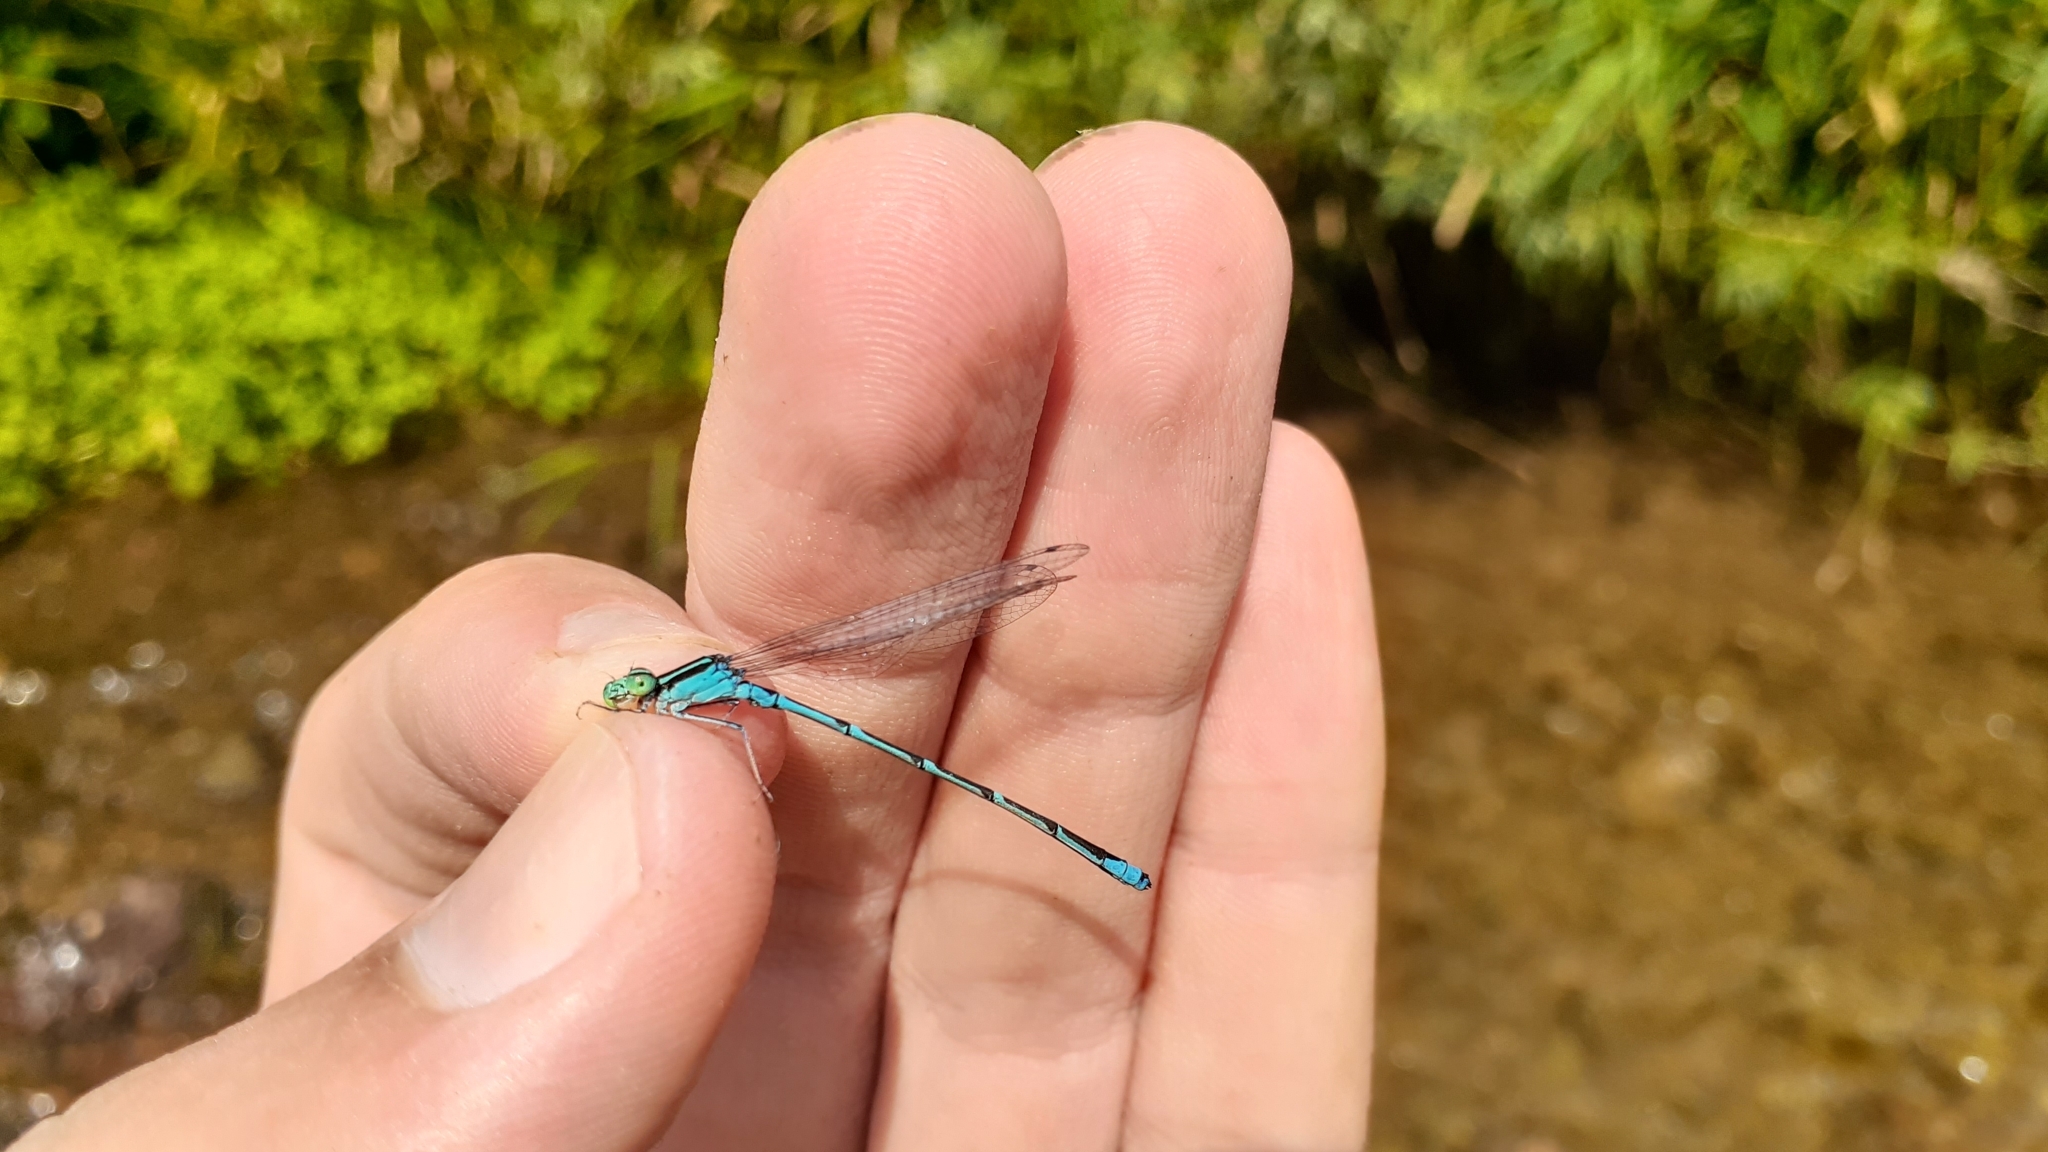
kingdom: Animalia
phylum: Arthropoda
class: Insecta
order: Odonata
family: Coenagrionidae
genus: Enallagma
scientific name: Enallagma exsulans
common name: Stream bluet
